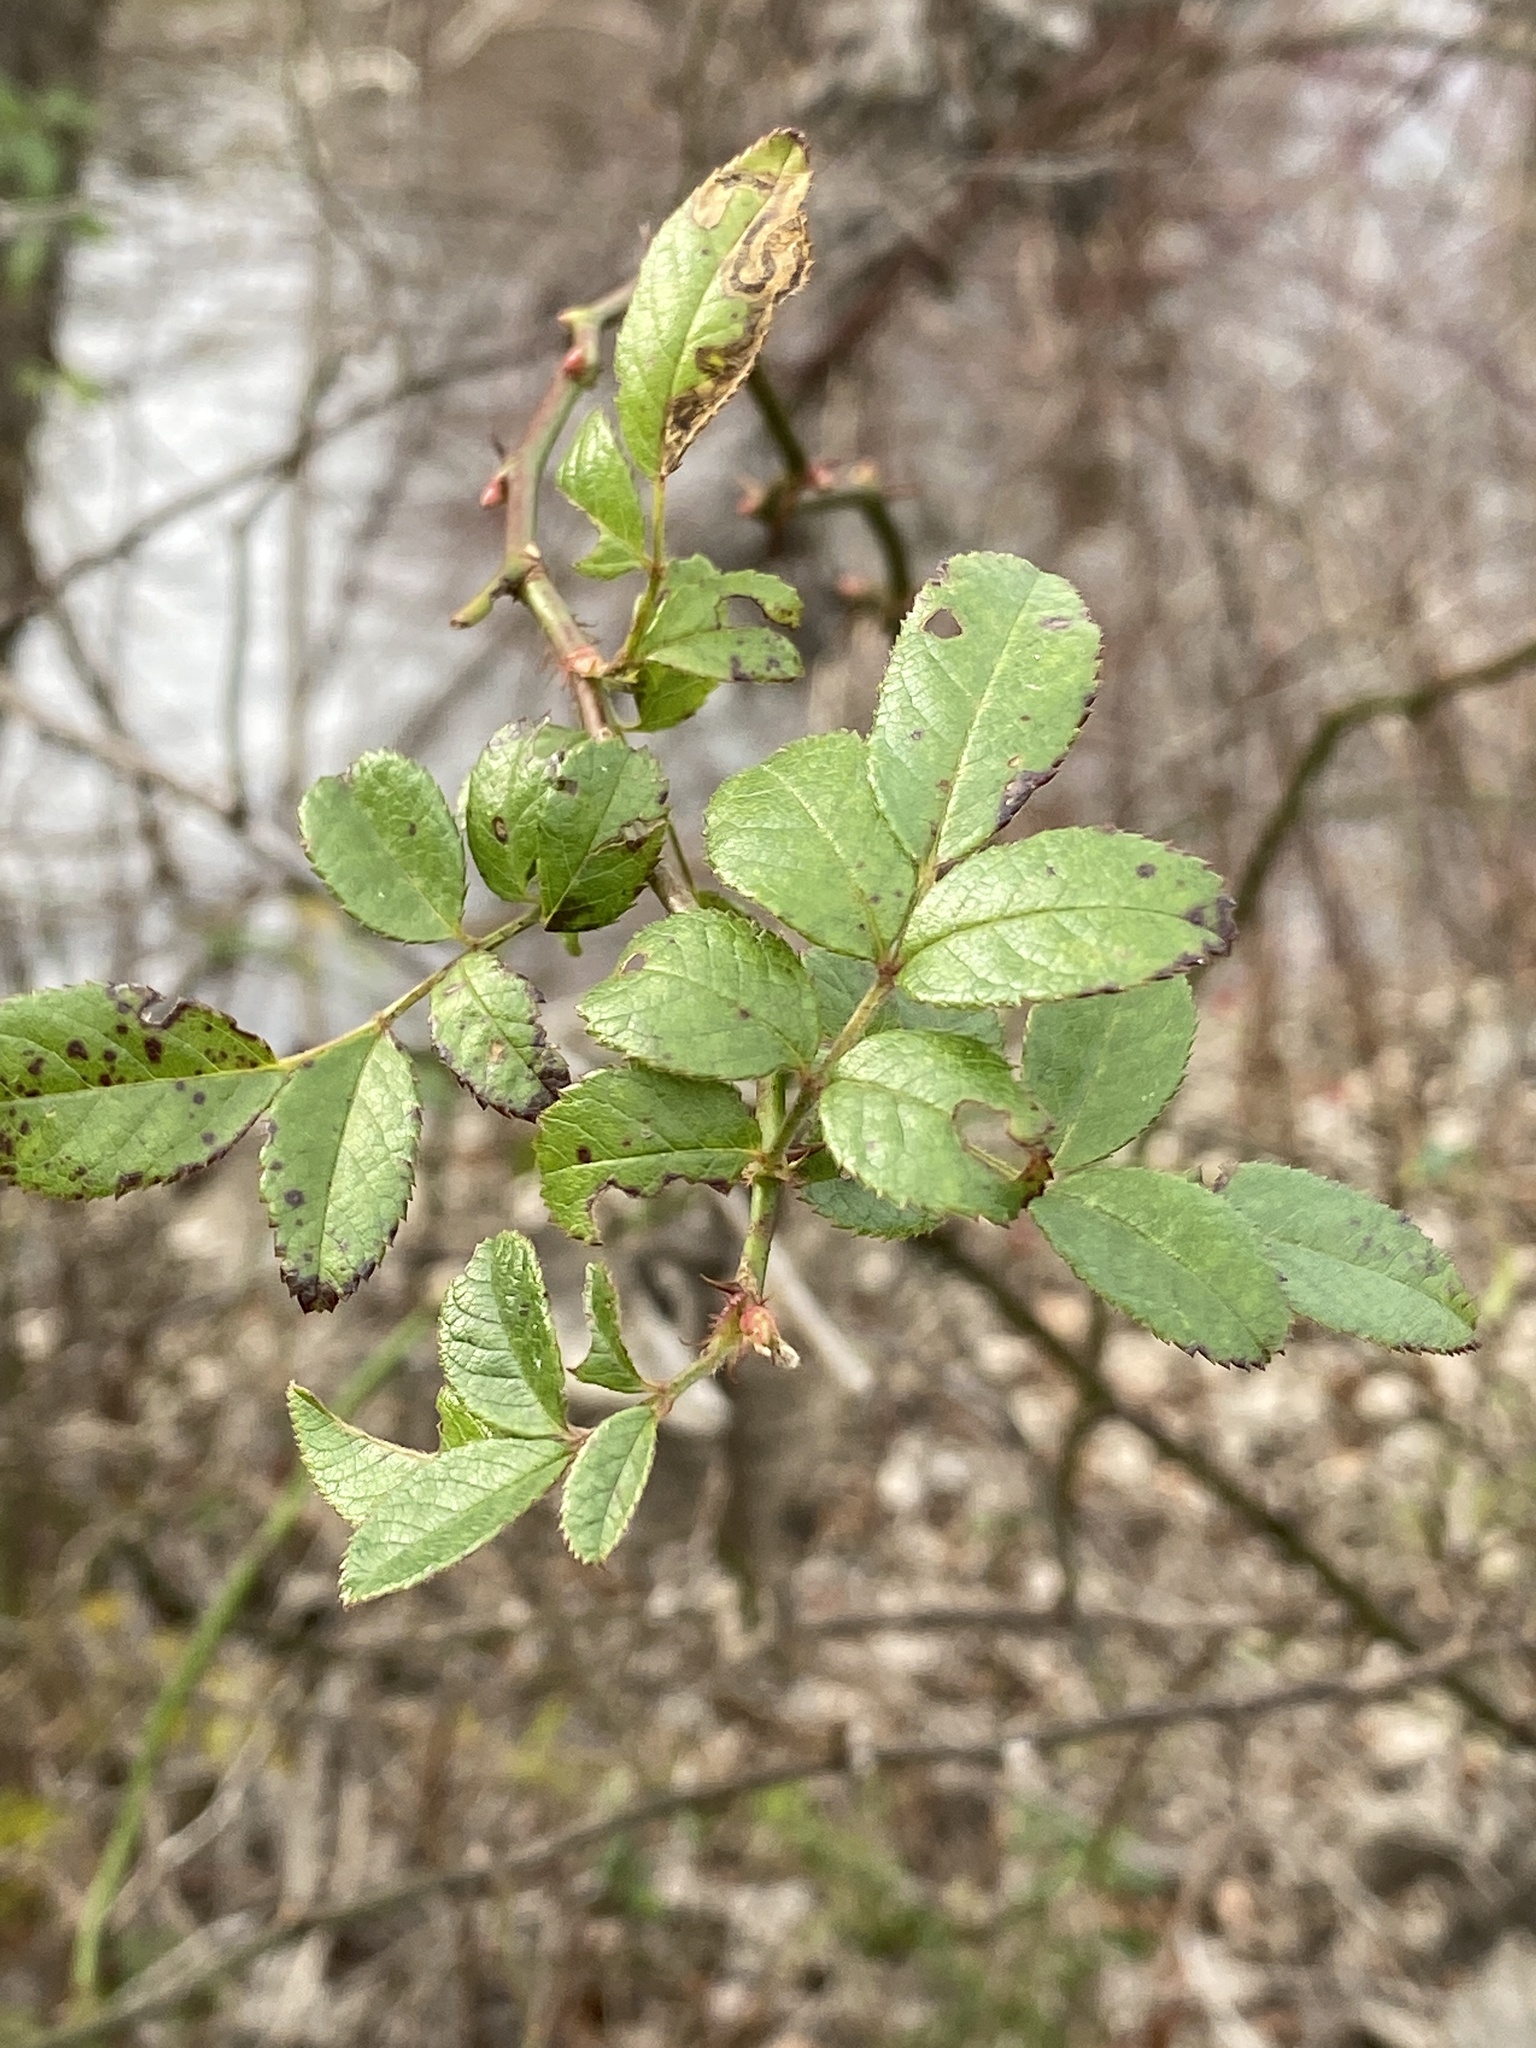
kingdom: Plantae
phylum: Tracheophyta
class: Magnoliopsida
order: Rosales
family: Rosaceae
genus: Rosa
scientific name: Rosa multiflora
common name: Multiflora rose
